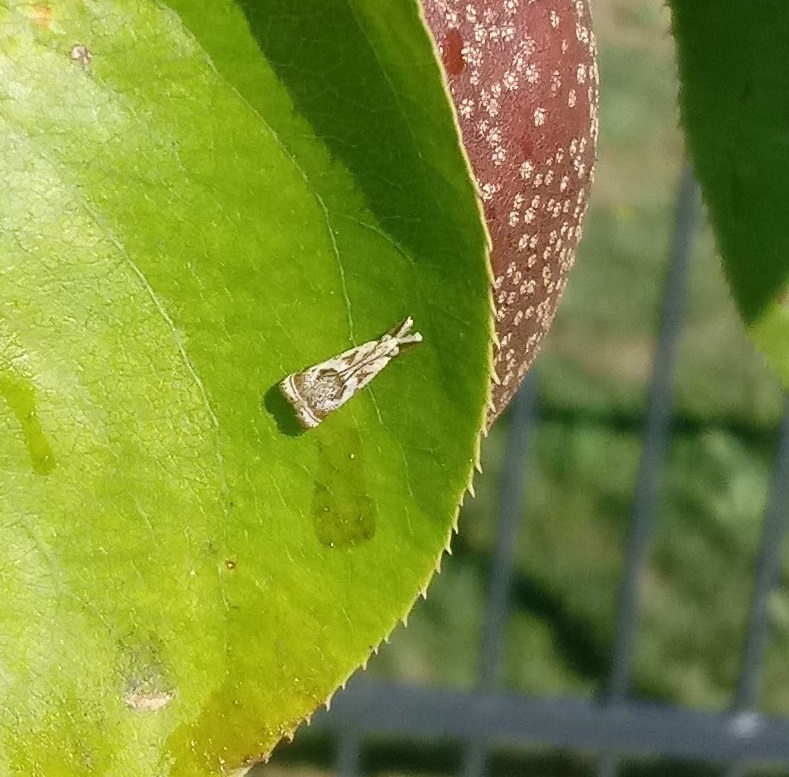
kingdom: Animalia
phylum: Arthropoda
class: Insecta
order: Lepidoptera
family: Crambidae
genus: Microcrambus
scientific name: Microcrambus elegans
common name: Elegant grass-veneer
